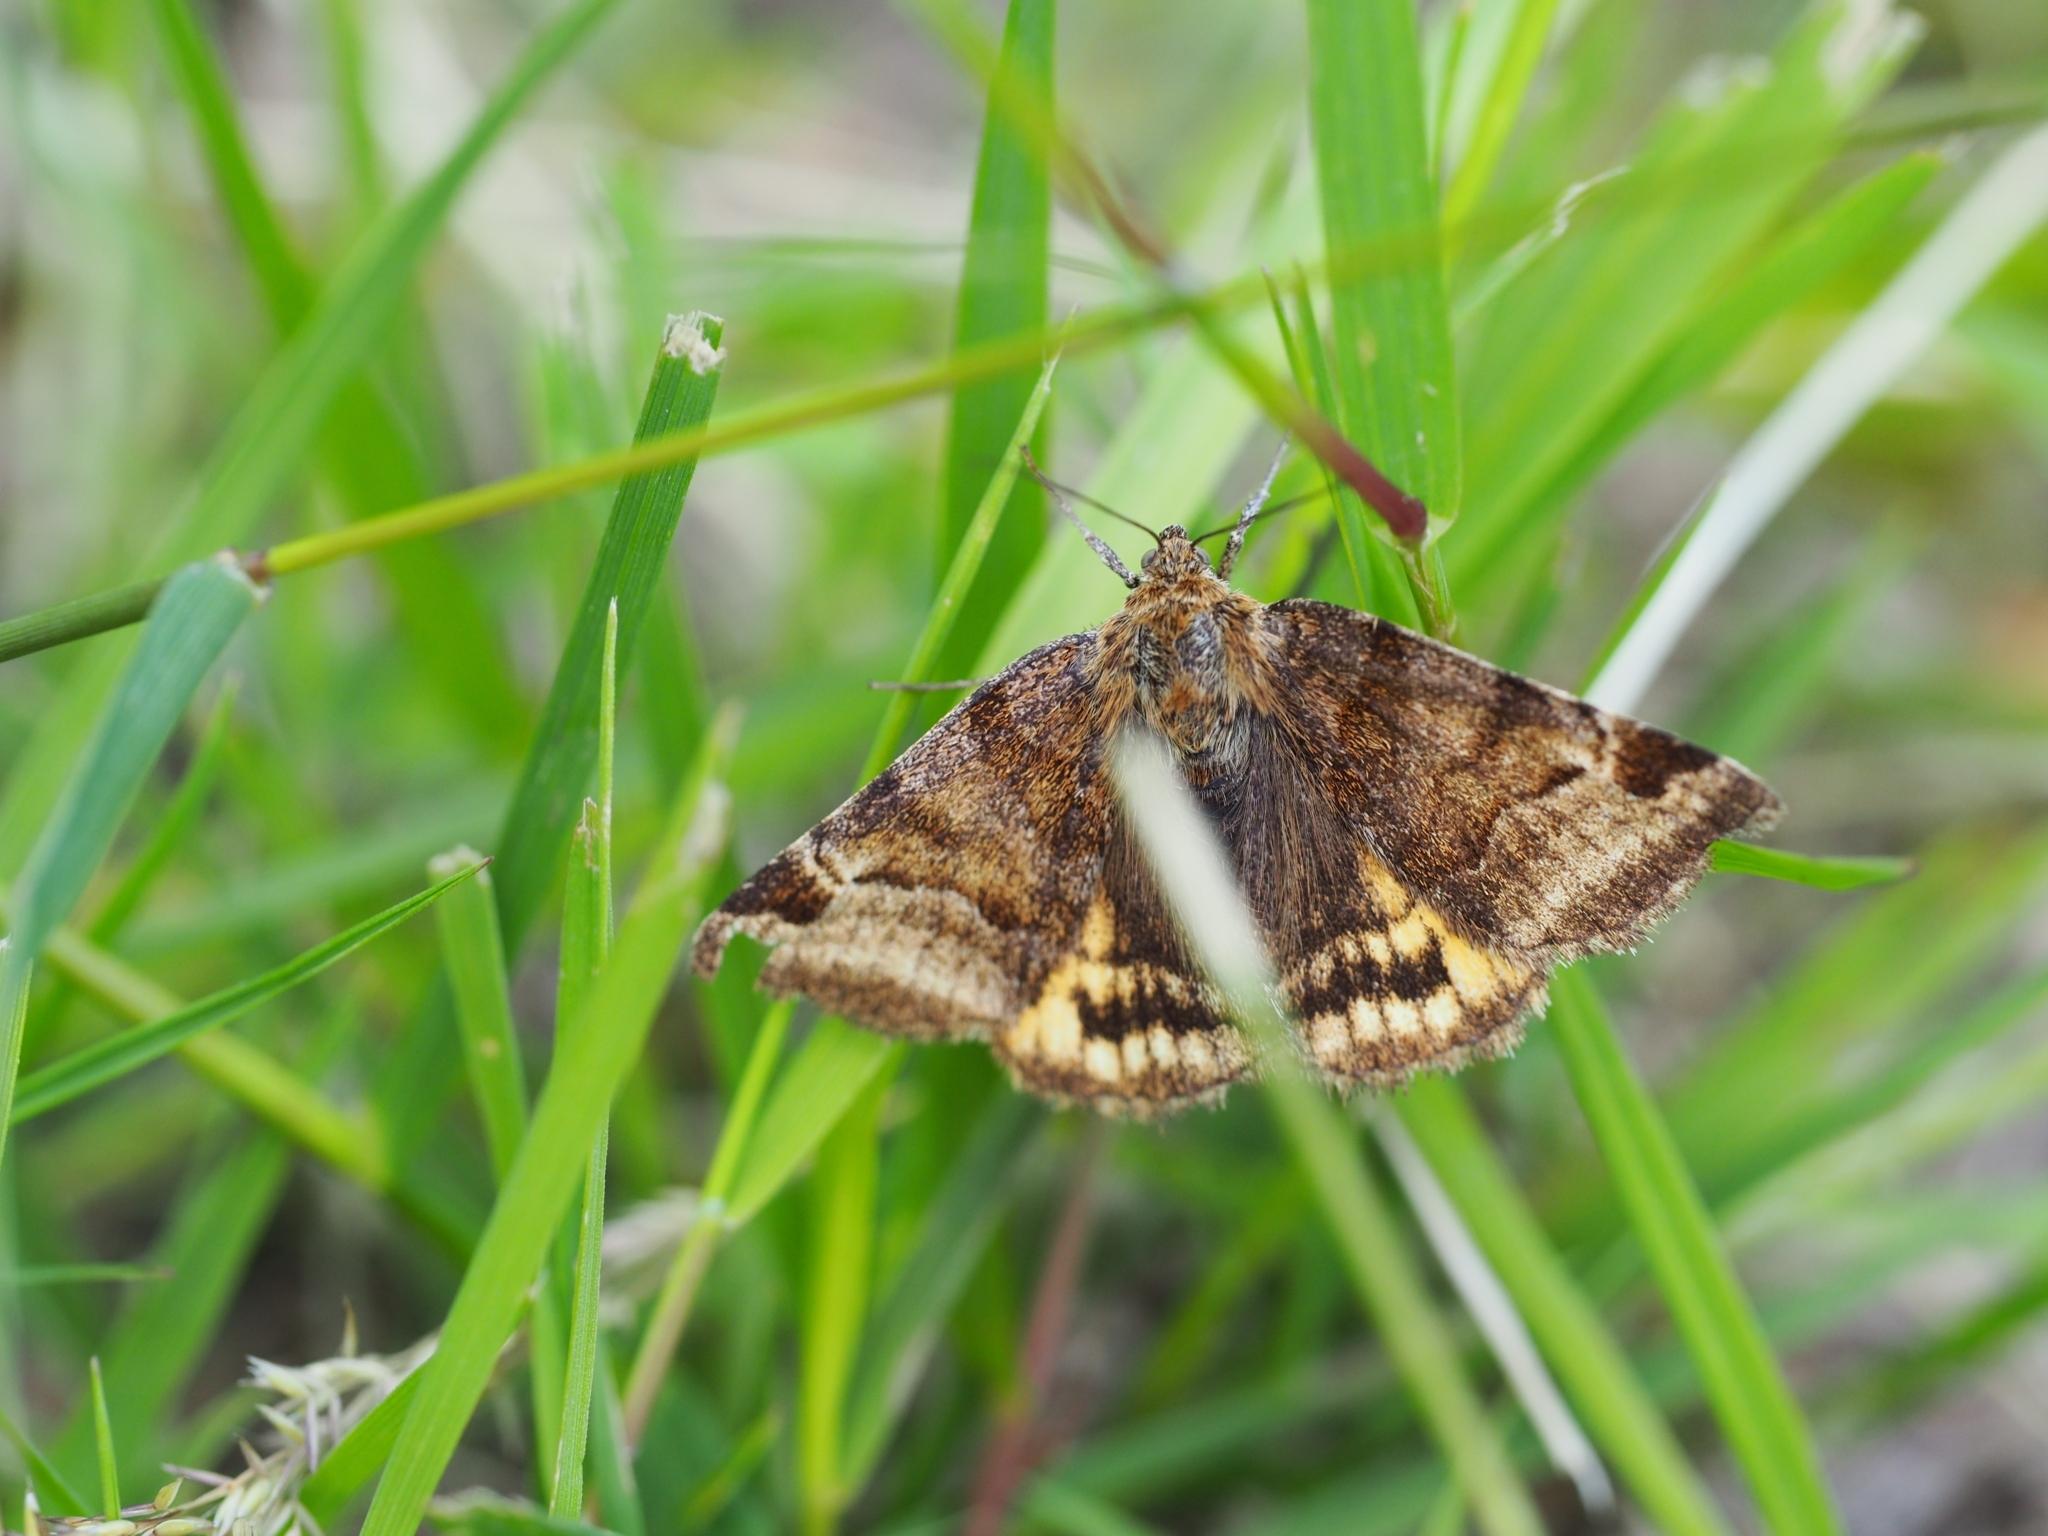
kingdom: Animalia
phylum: Arthropoda
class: Insecta
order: Lepidoptera
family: Erebidae
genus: Euclidia
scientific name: Euclidia glyphica
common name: Burnet companion
